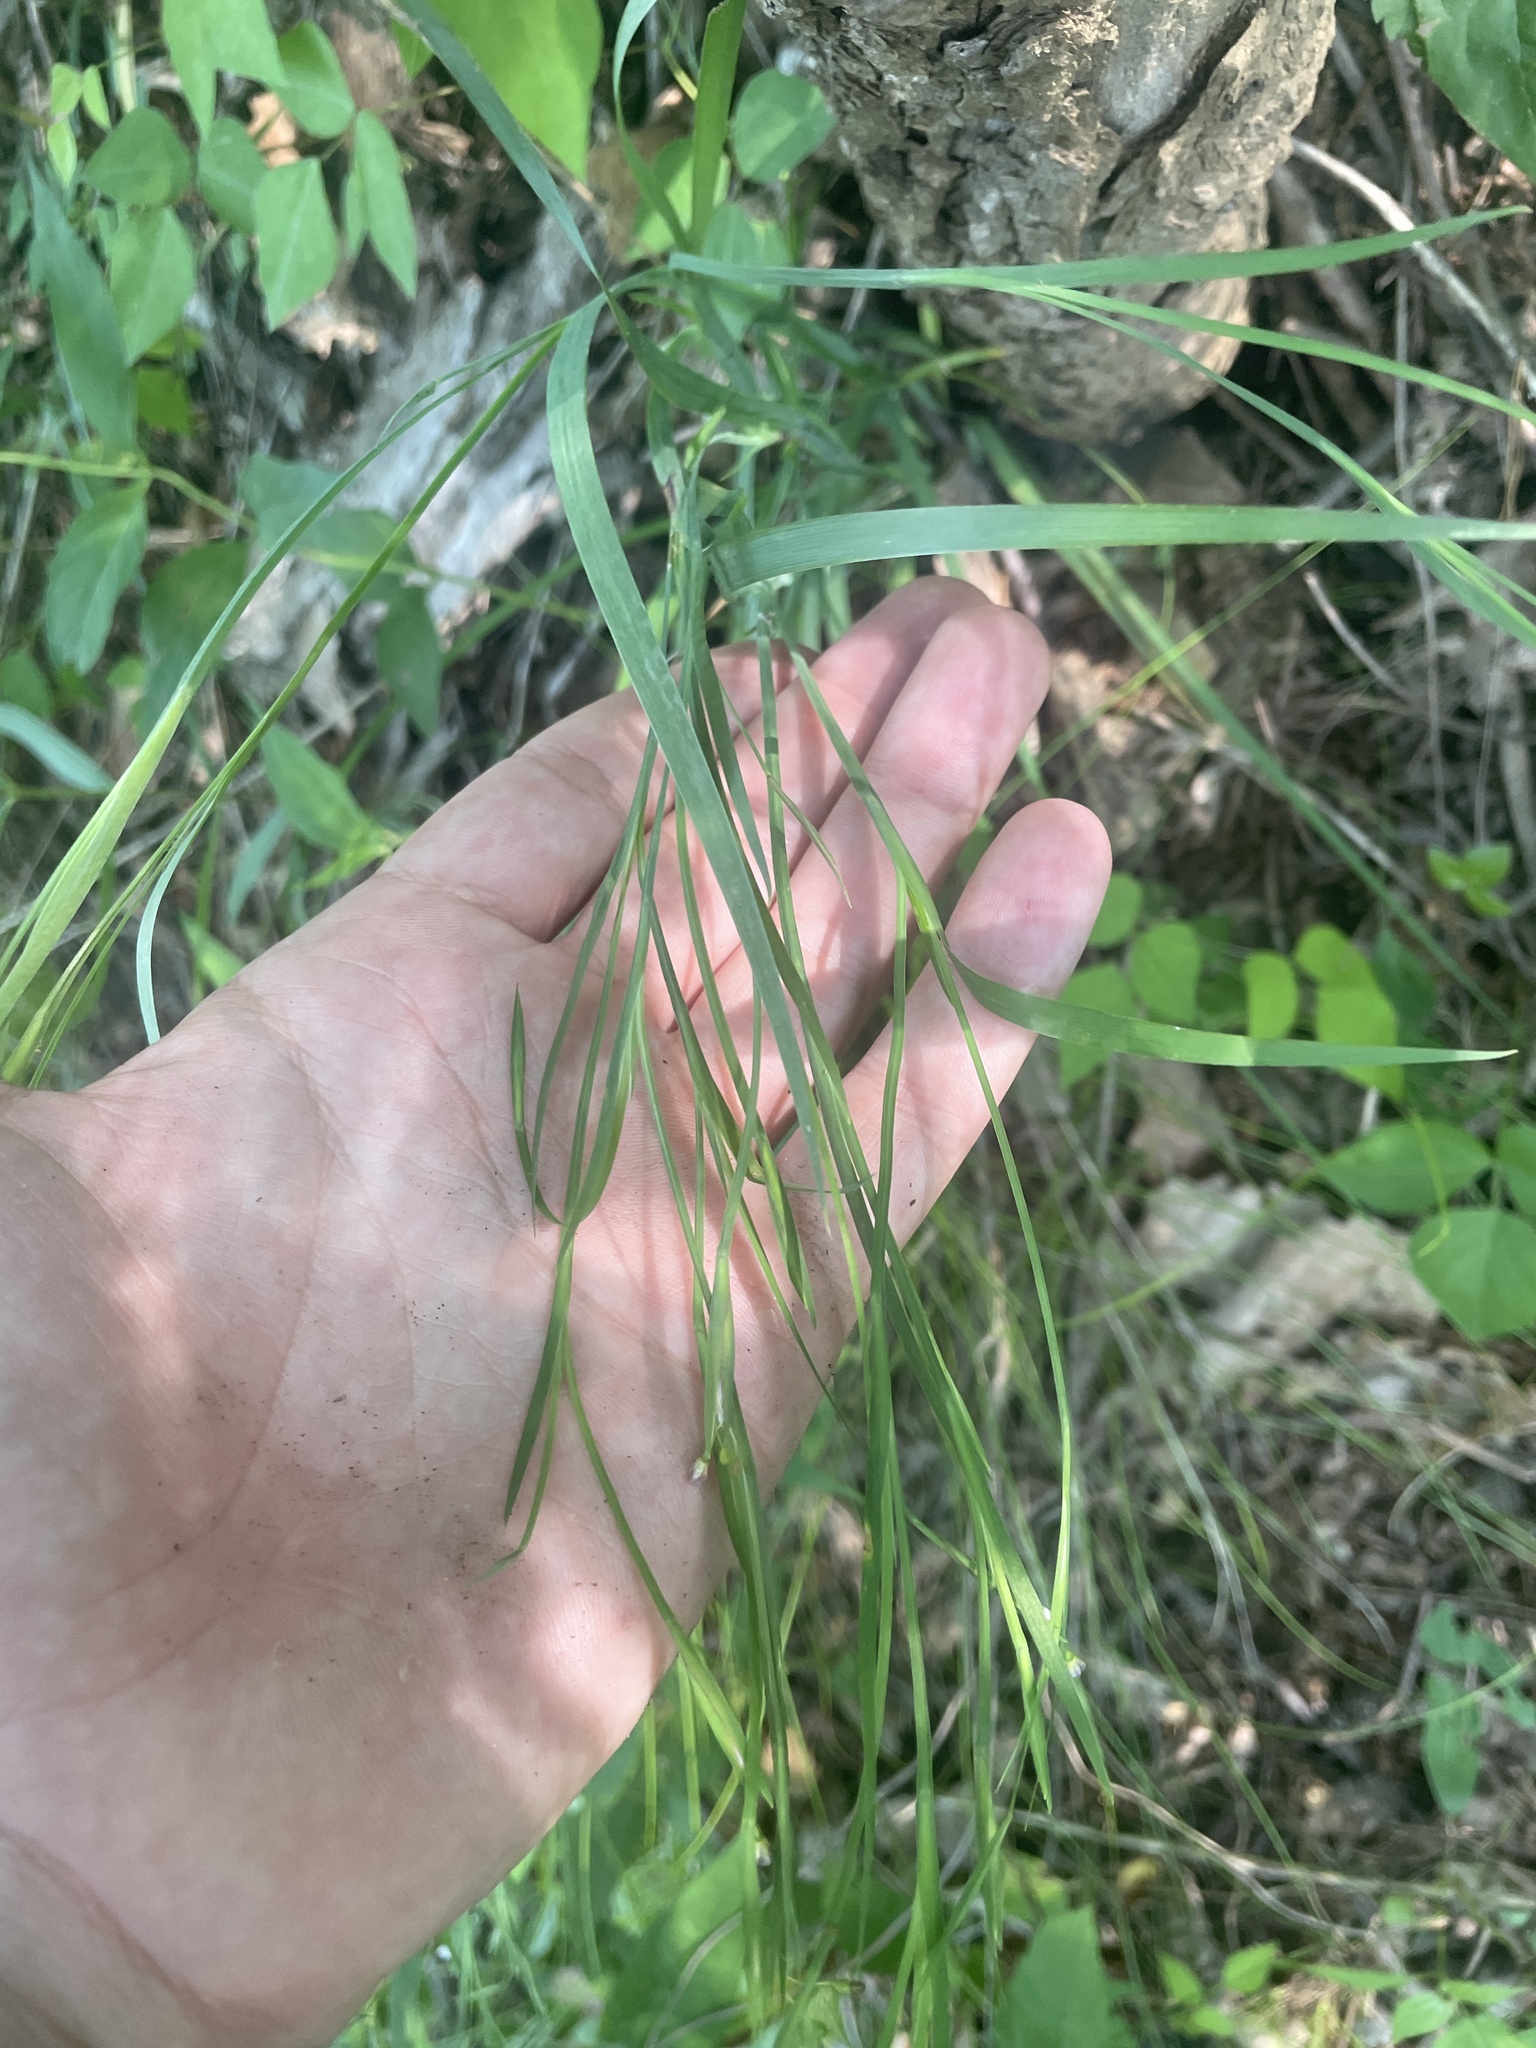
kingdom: Plantae
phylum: Tracheophyta
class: Liliopsida
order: Asparagales
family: Iridaceae
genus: Sisyrinchium
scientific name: Sisyrinchium dichotomum
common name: White irisette
